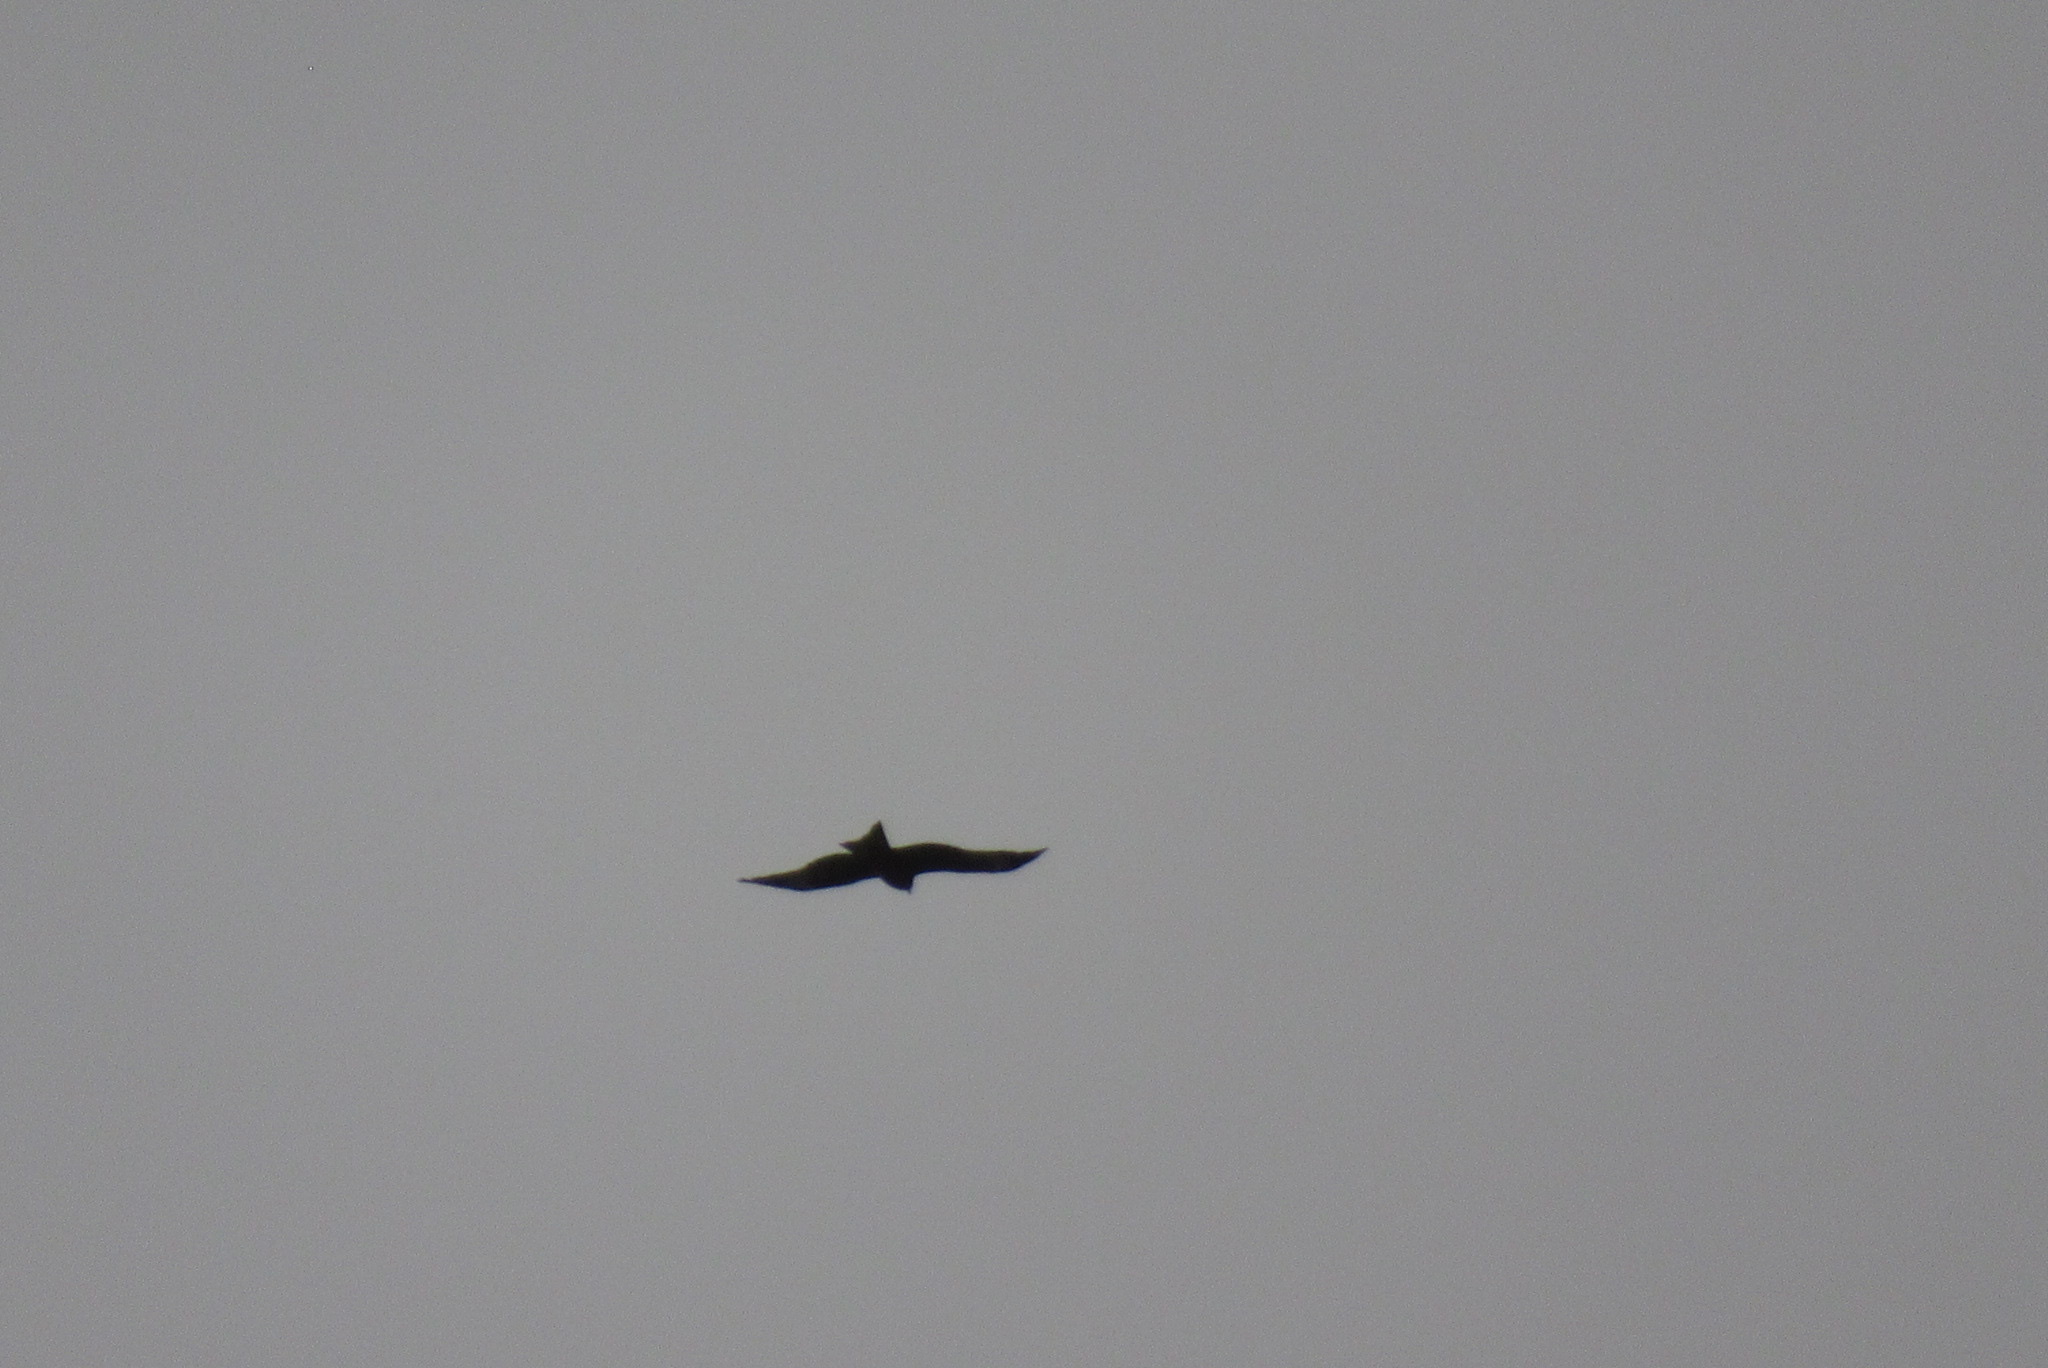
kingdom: Animalia
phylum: Chordata
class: Aves
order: Accipitriformes
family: Accipitridae
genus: Milvus
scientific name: Milvus migrans
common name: Black kite
